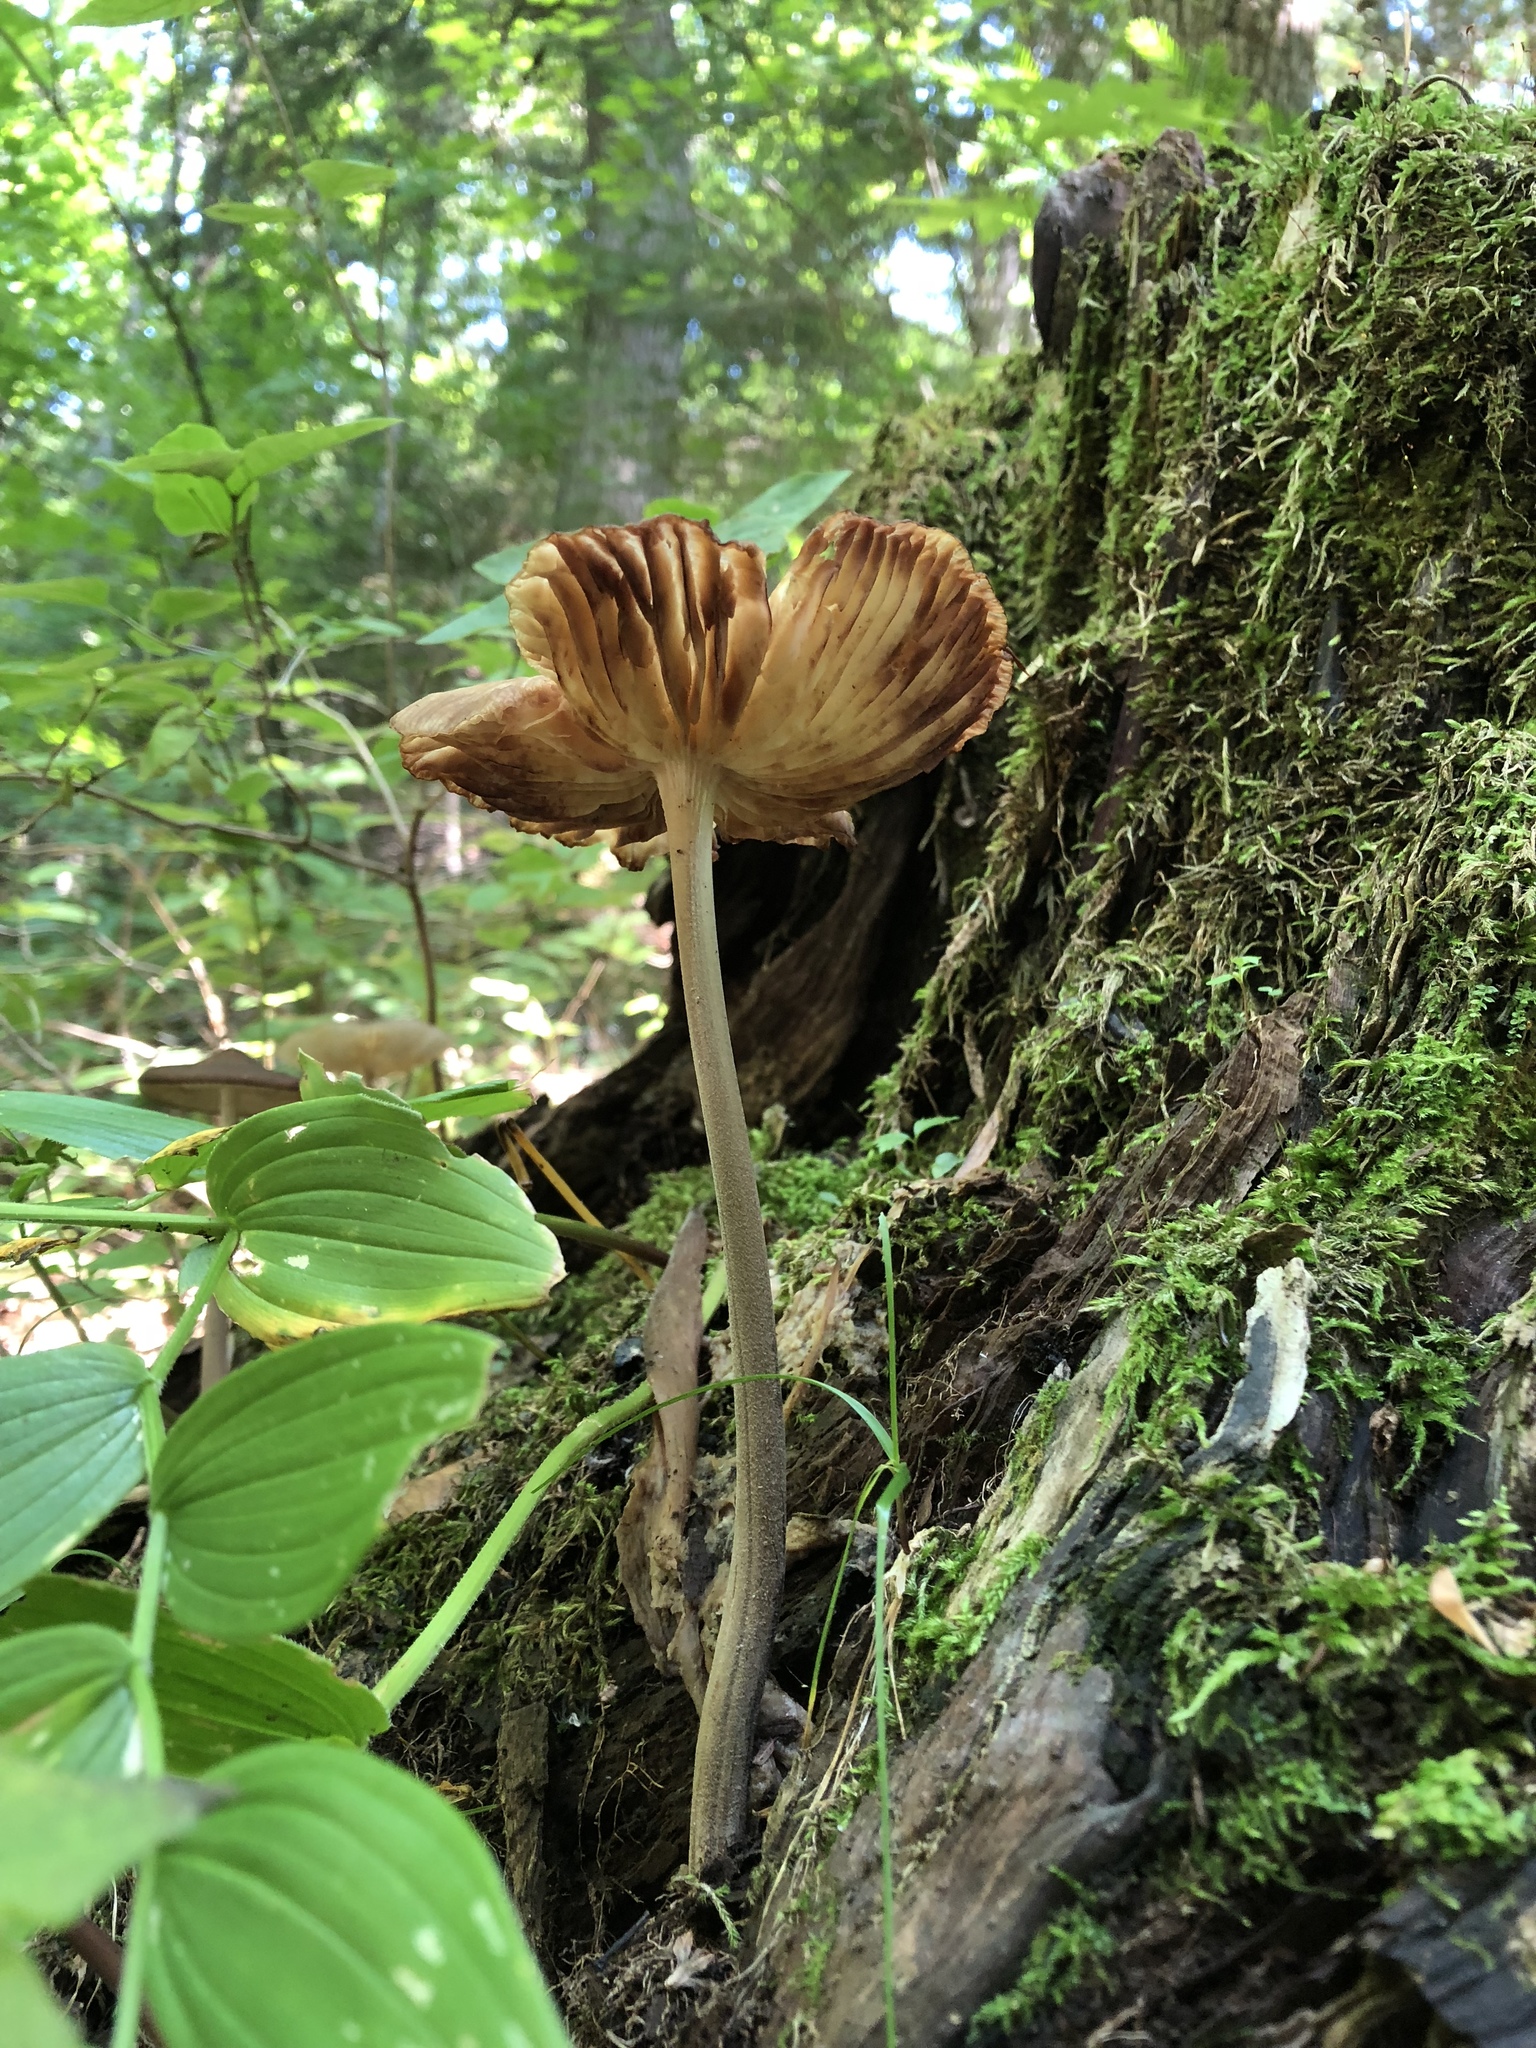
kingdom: Fungi
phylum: Basidiomycota
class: Agaricomycetes
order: Agaricales
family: Physalacriaceae
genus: Hymenopellis
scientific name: Hymenopellis furfuracea
